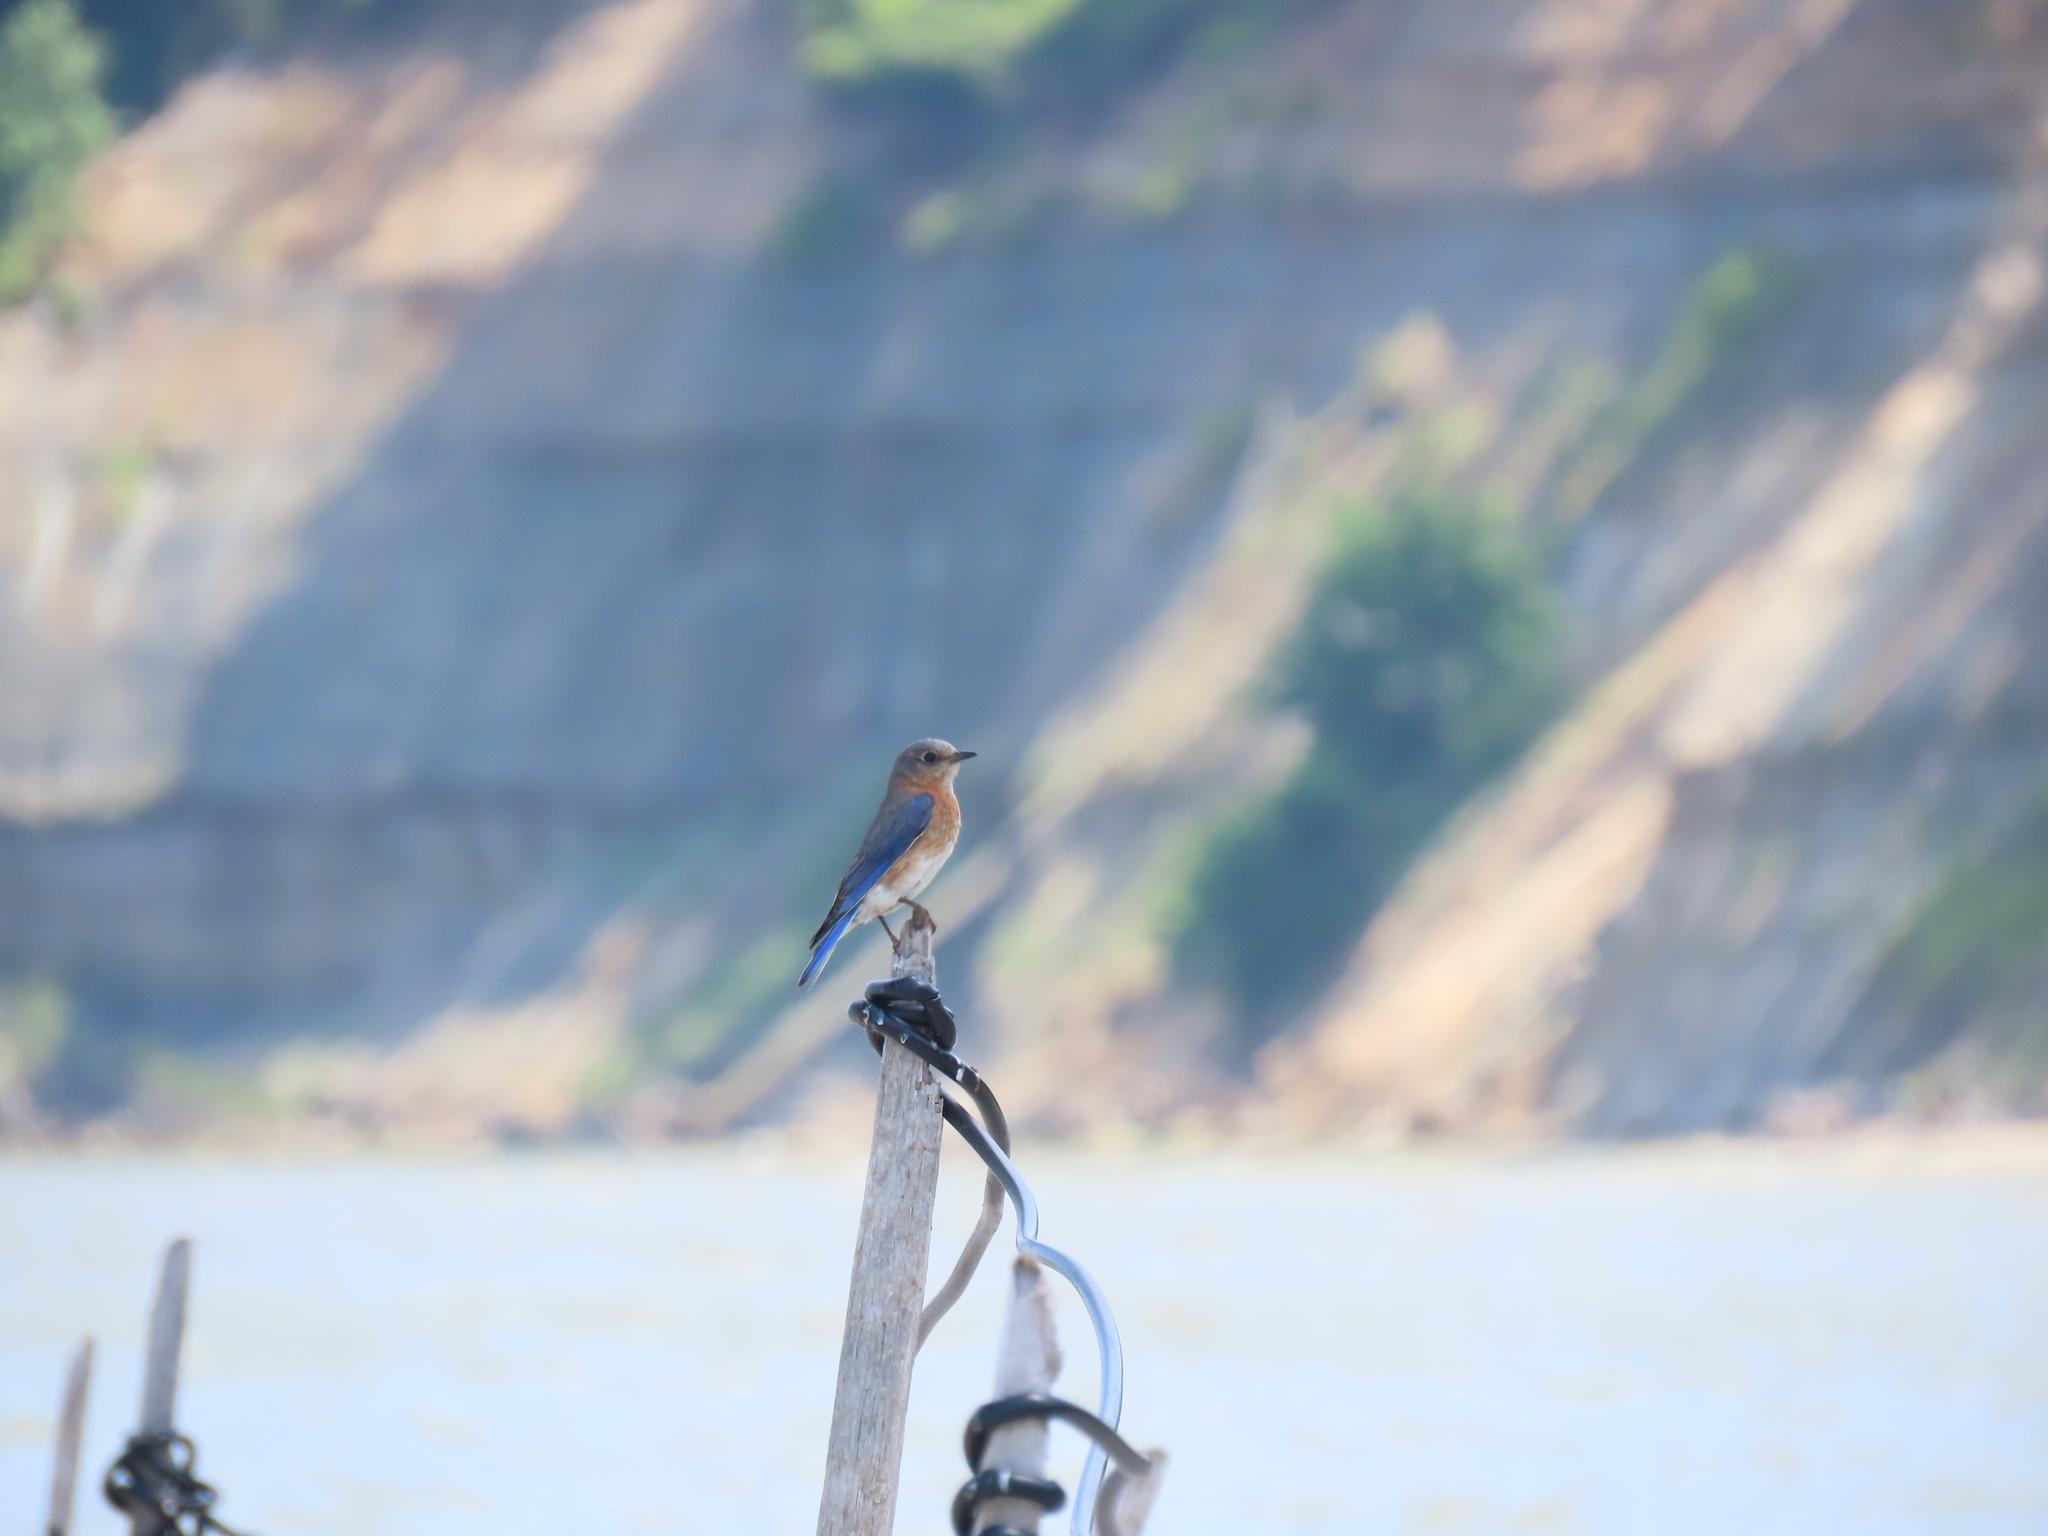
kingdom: Animalia
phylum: Chordata
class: Aves
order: Passeriformes
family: Turdidae
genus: Sialia
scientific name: Sialia sialis
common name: Eastern bluebird
